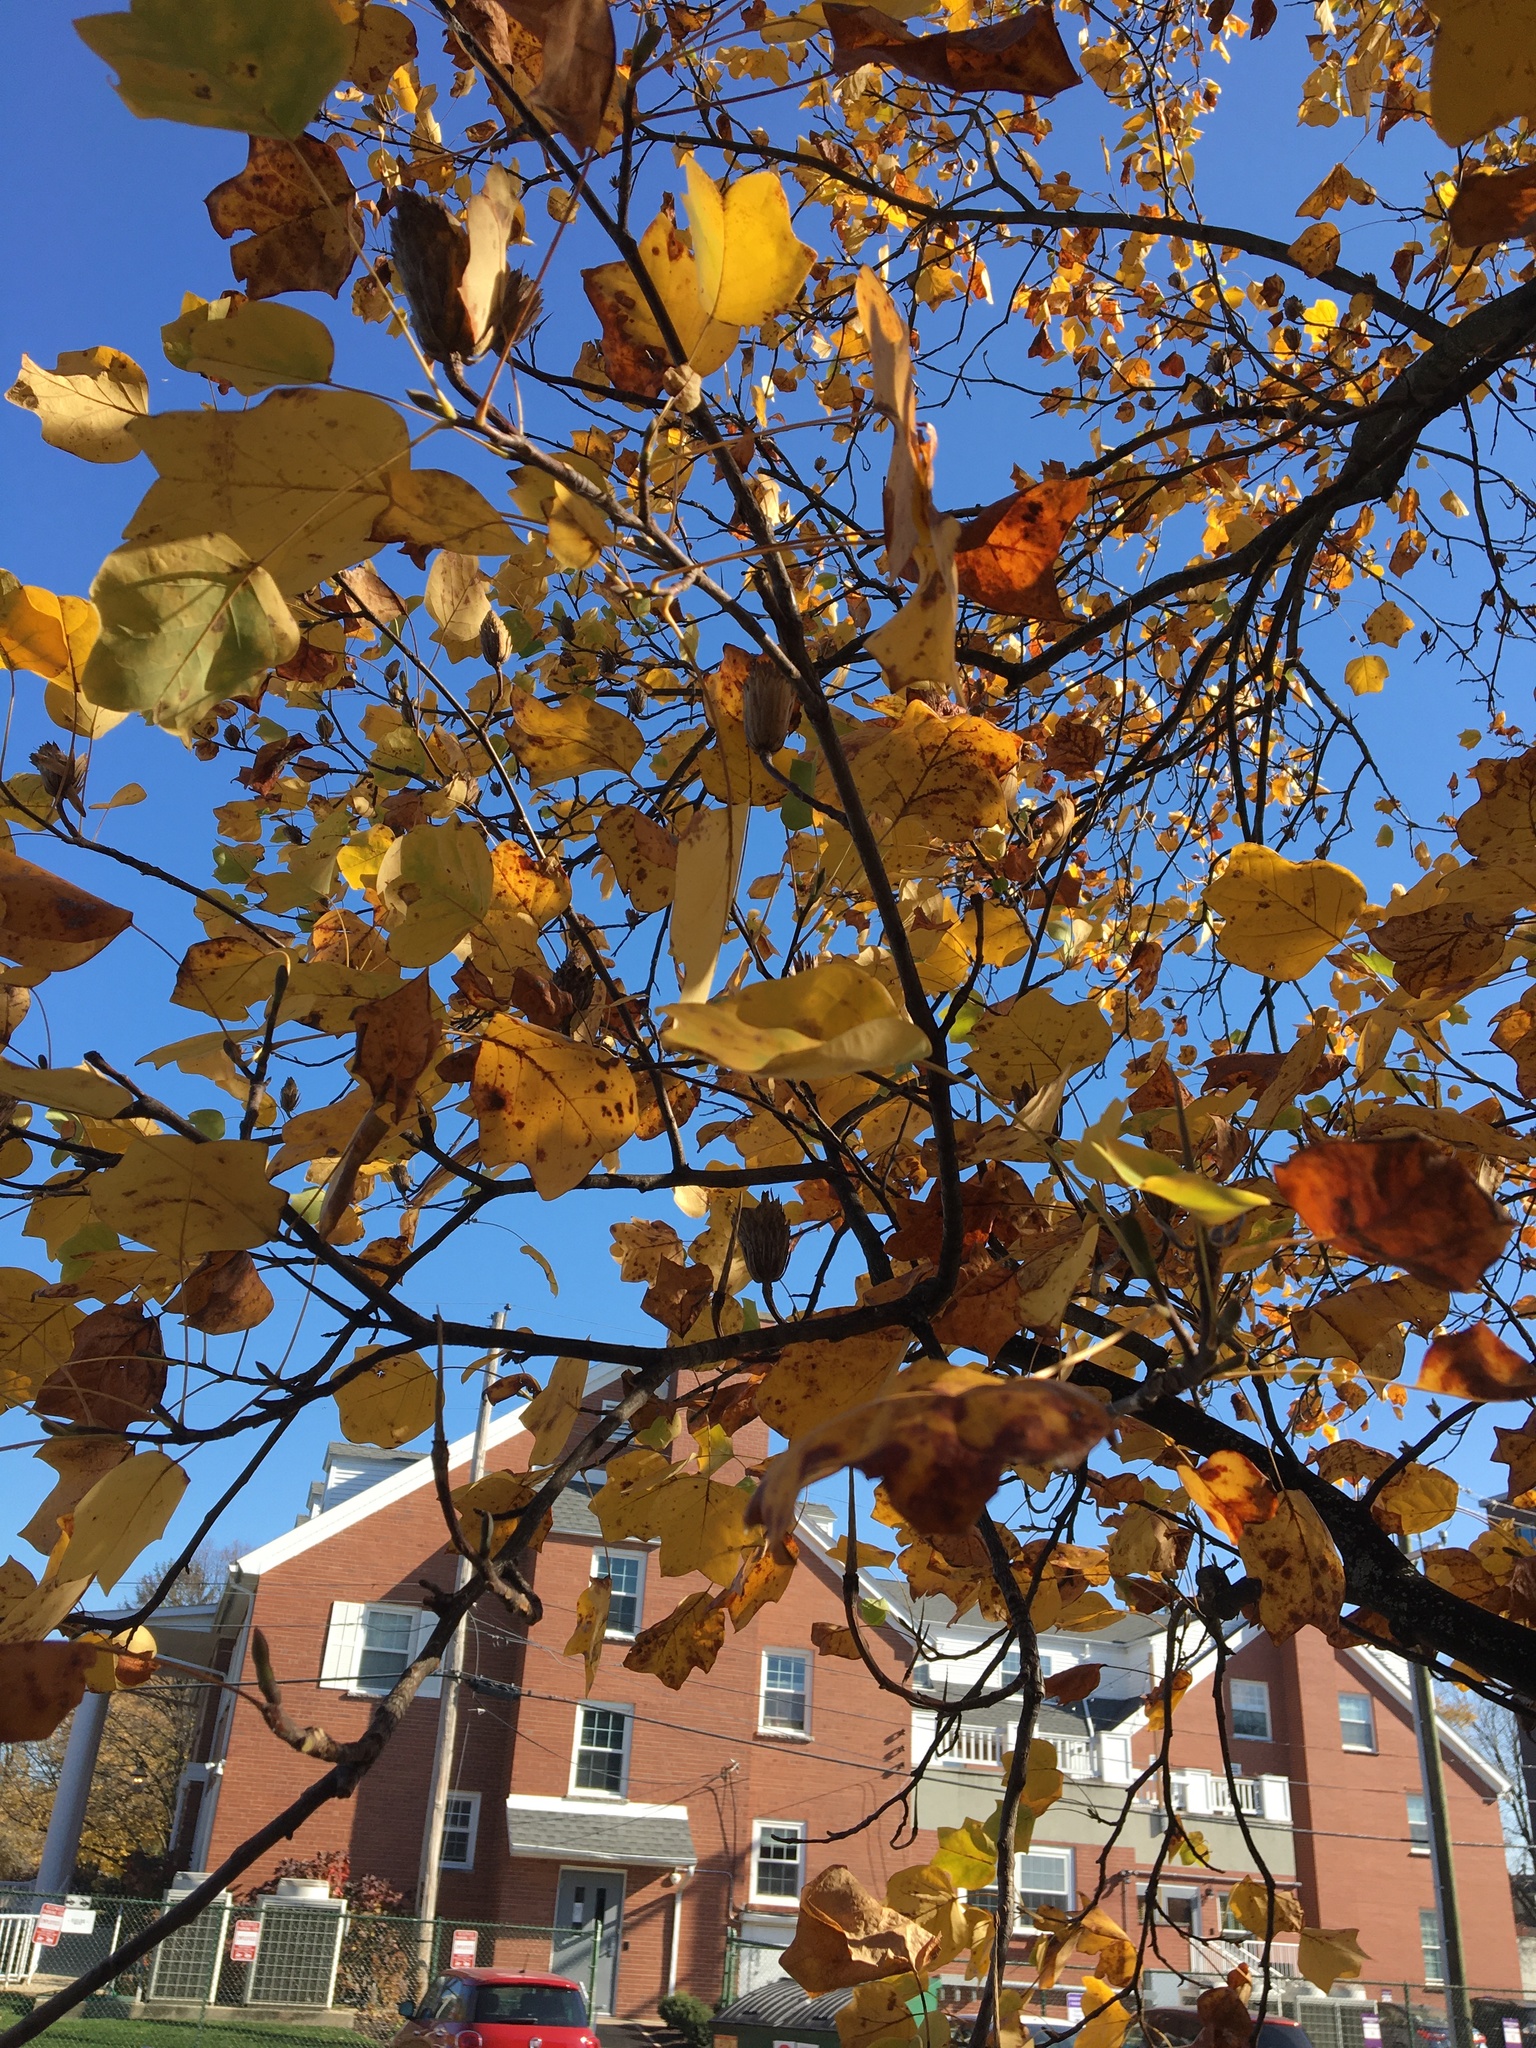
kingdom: Plantae
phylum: Tracheophyta
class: Magnoliopsida
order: Magnoliales
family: Magnoliaceae
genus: Liriodendron
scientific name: Liriodendron tulipifera
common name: Tulip tree
